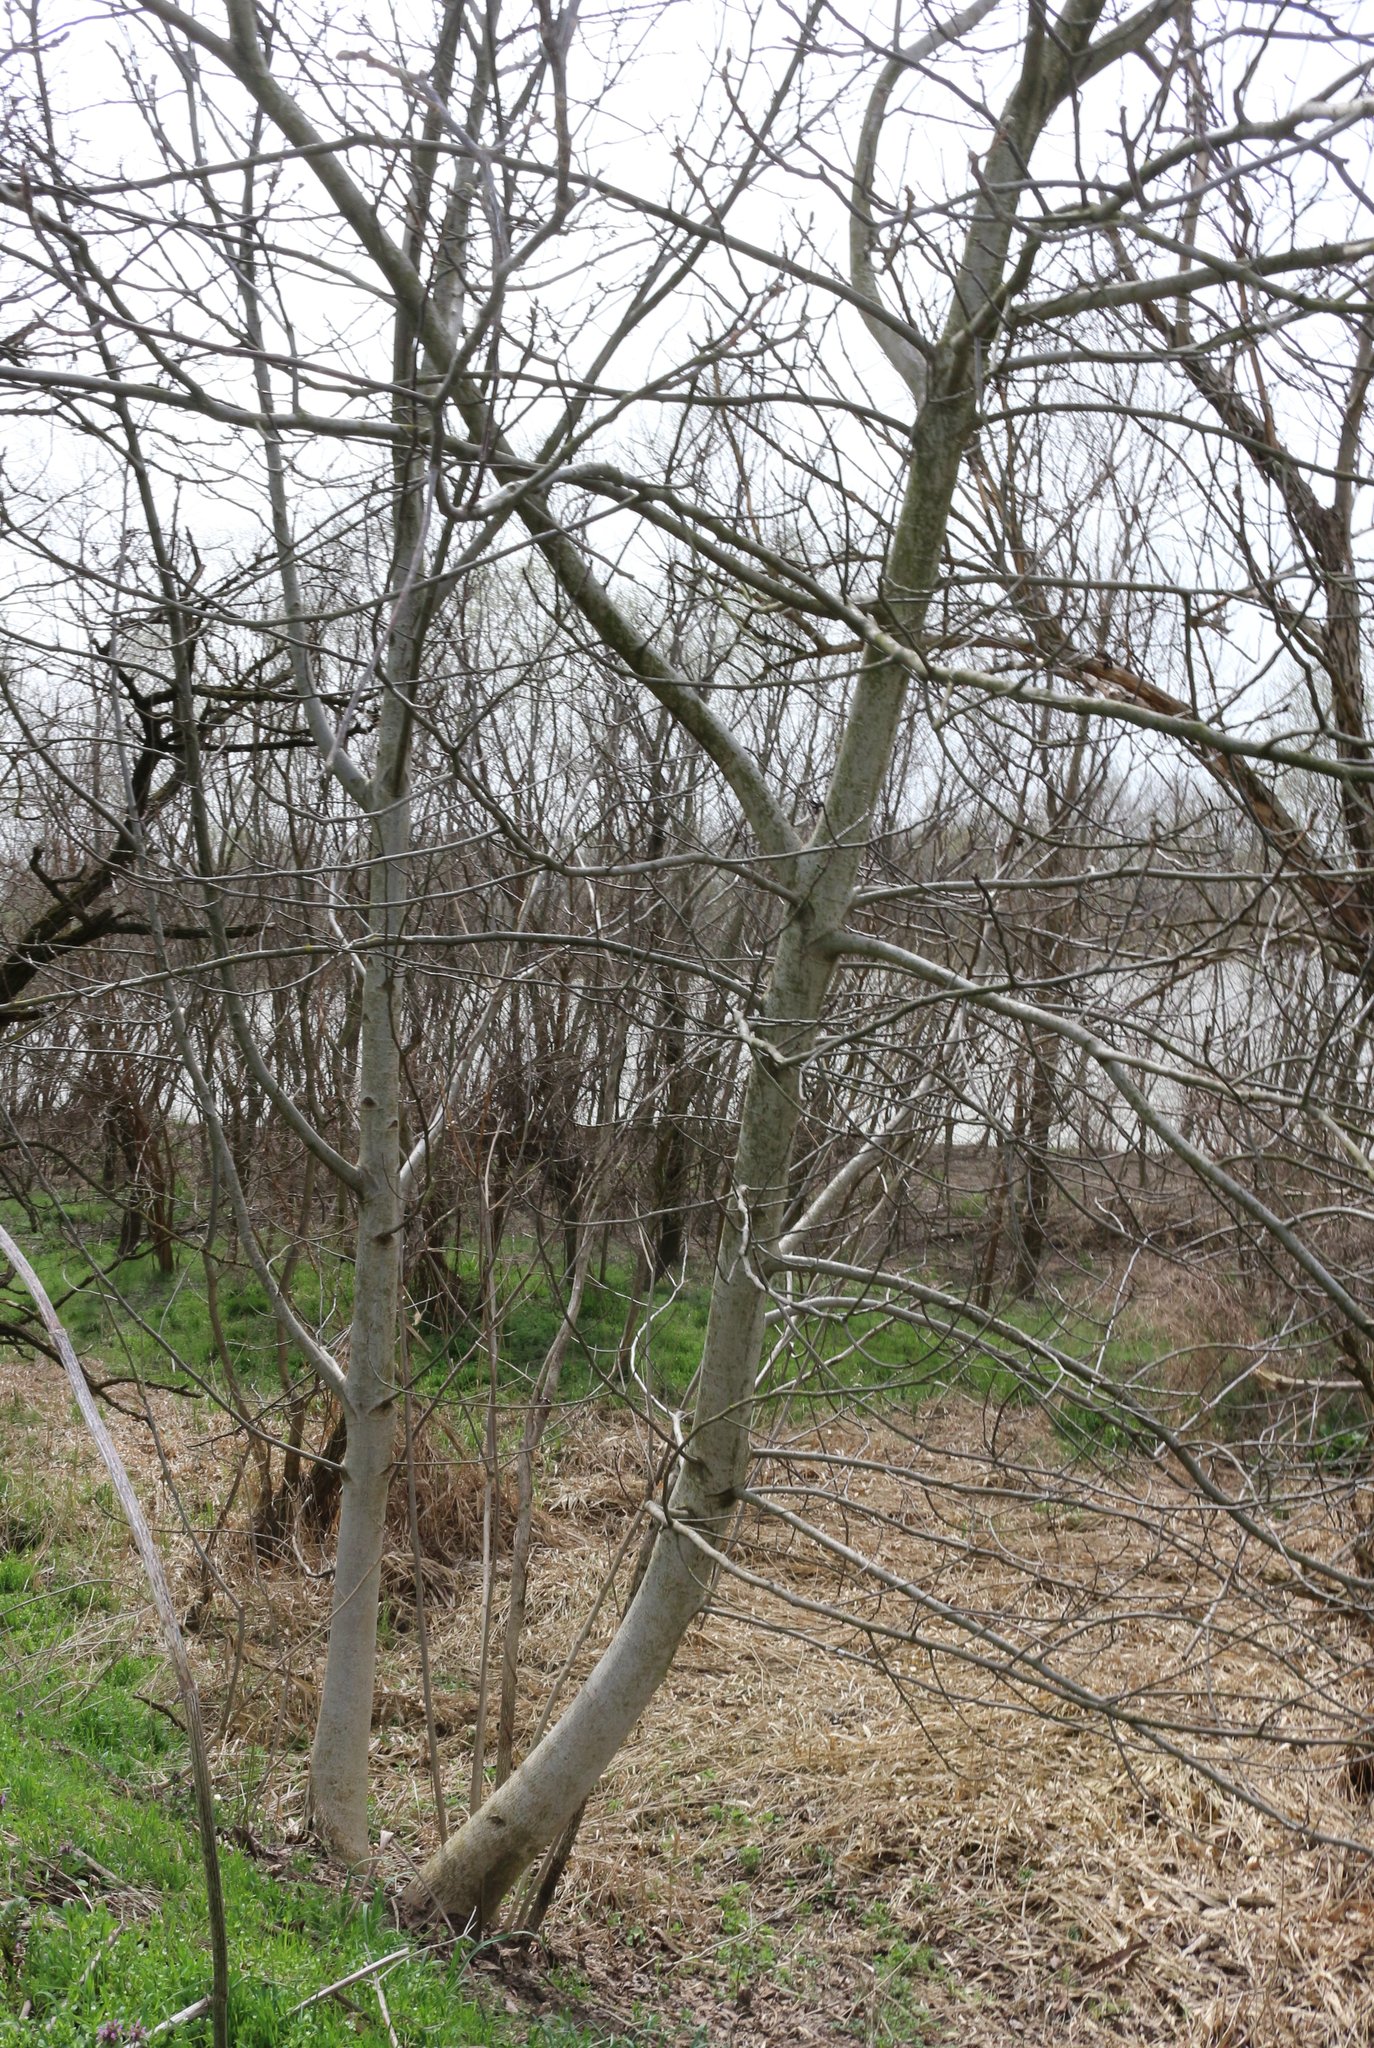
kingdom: Plantae
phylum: Tracheophyta
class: Magnoliopsida
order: Fagales
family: Juglandaceae
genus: Juglans
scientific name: Juglans regia
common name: Walnut
